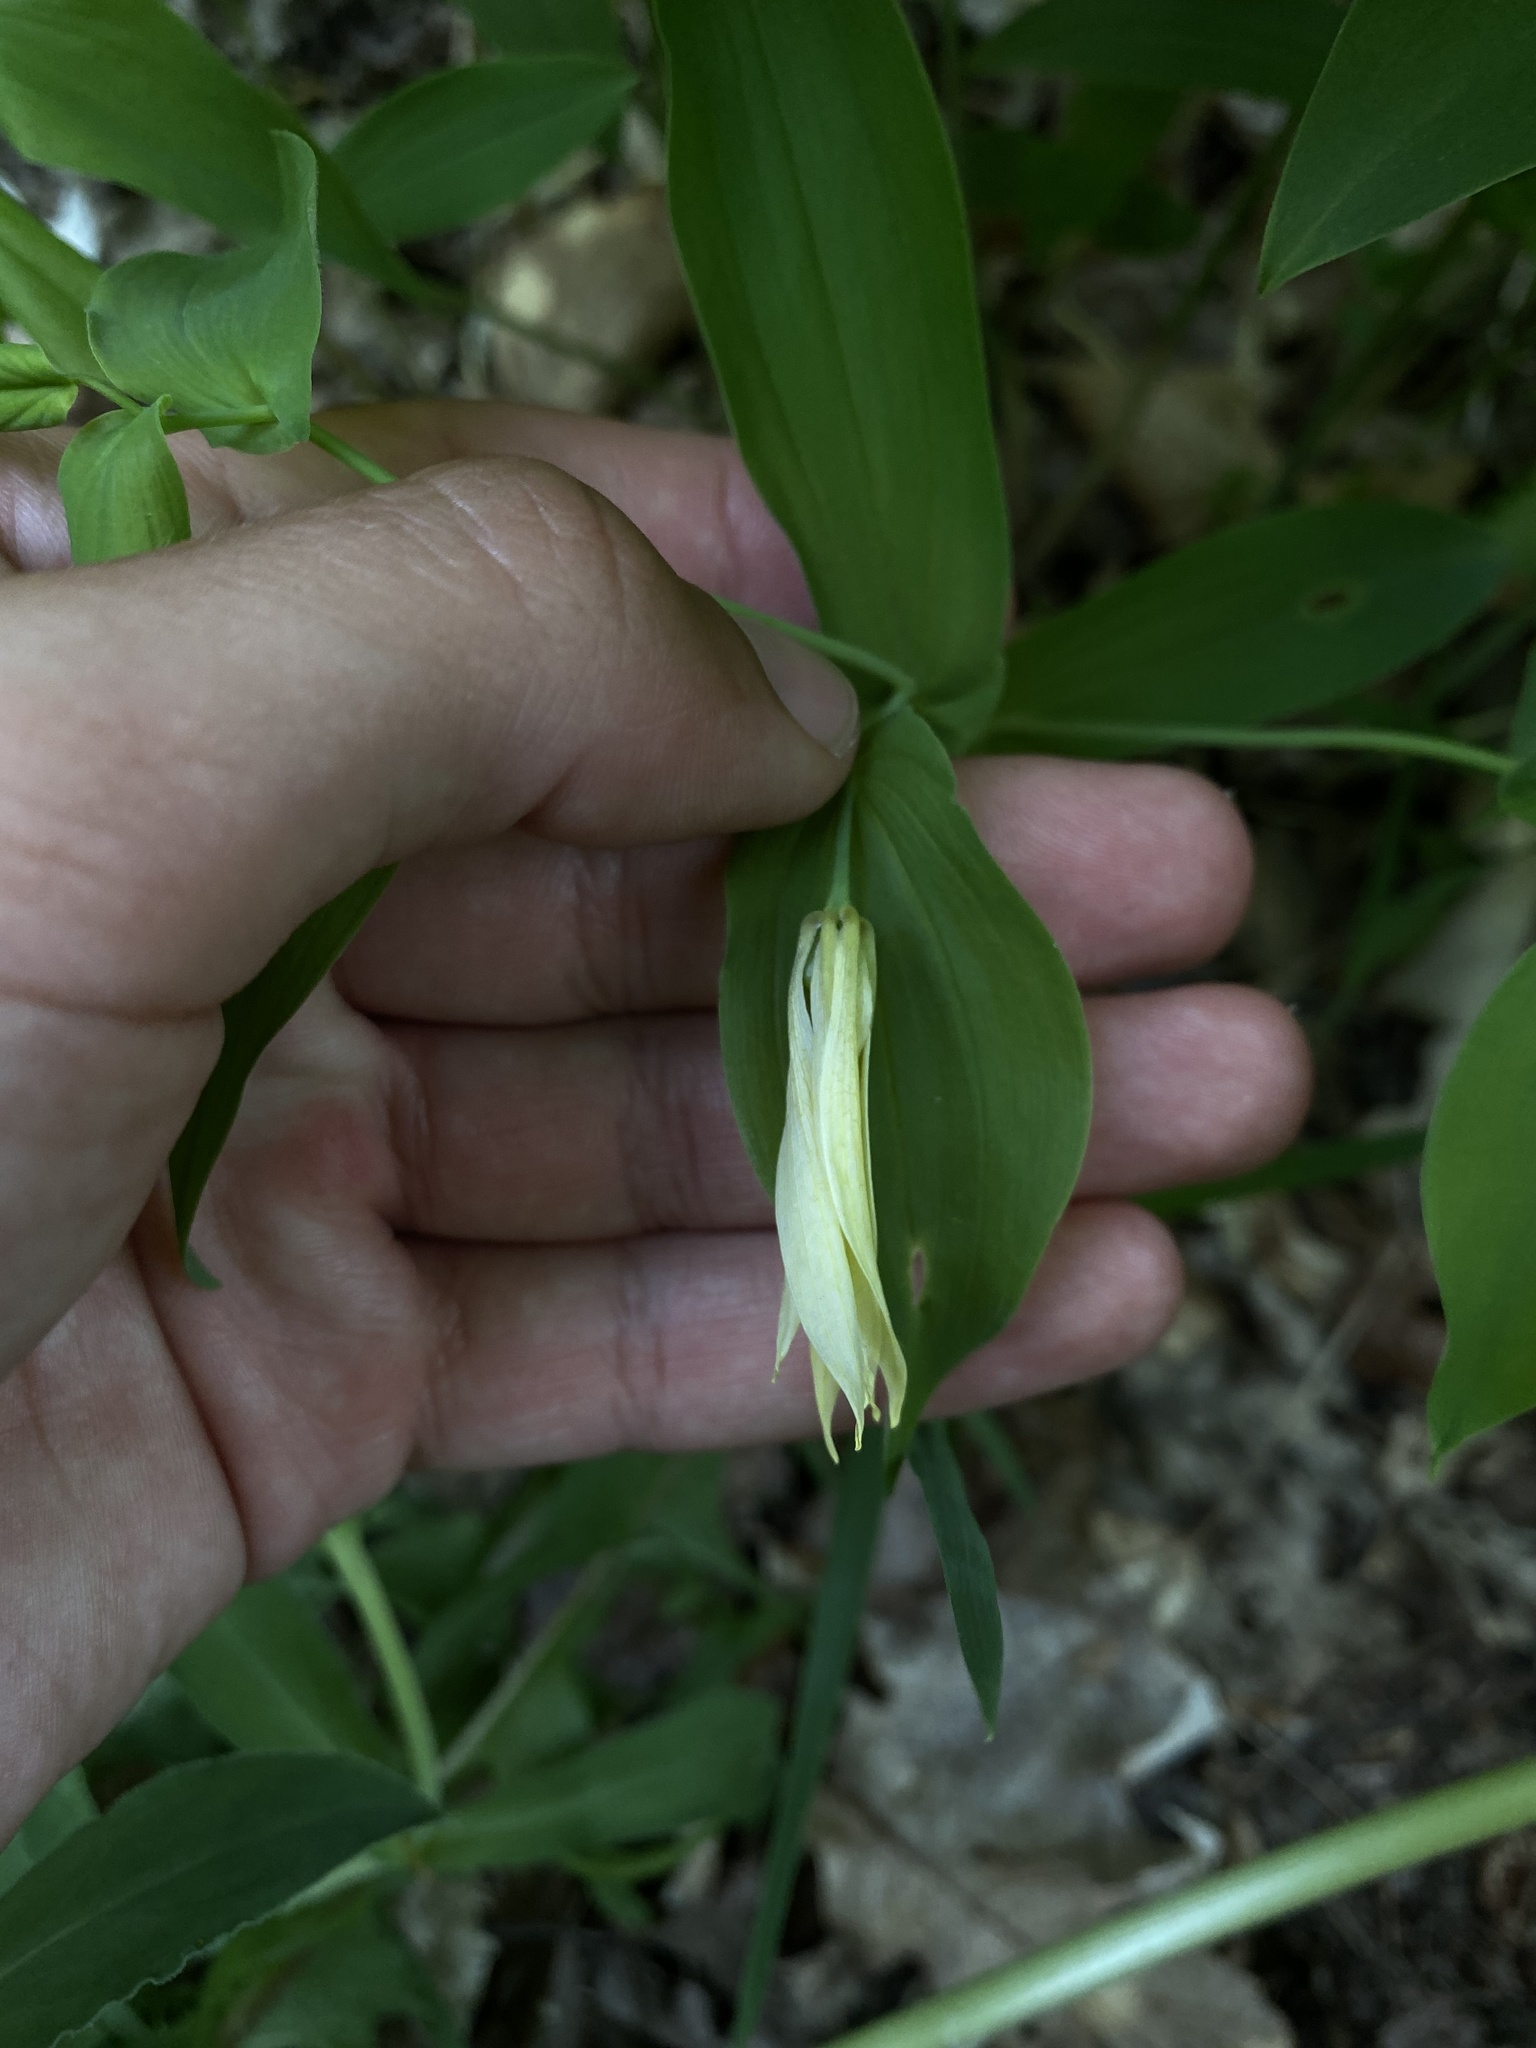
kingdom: Plantae
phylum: Tracheophyta
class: Liliopsida
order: Liliales
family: Colchicaceae
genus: Uvularia
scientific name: Uvularia grandiflora
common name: Bellwort
